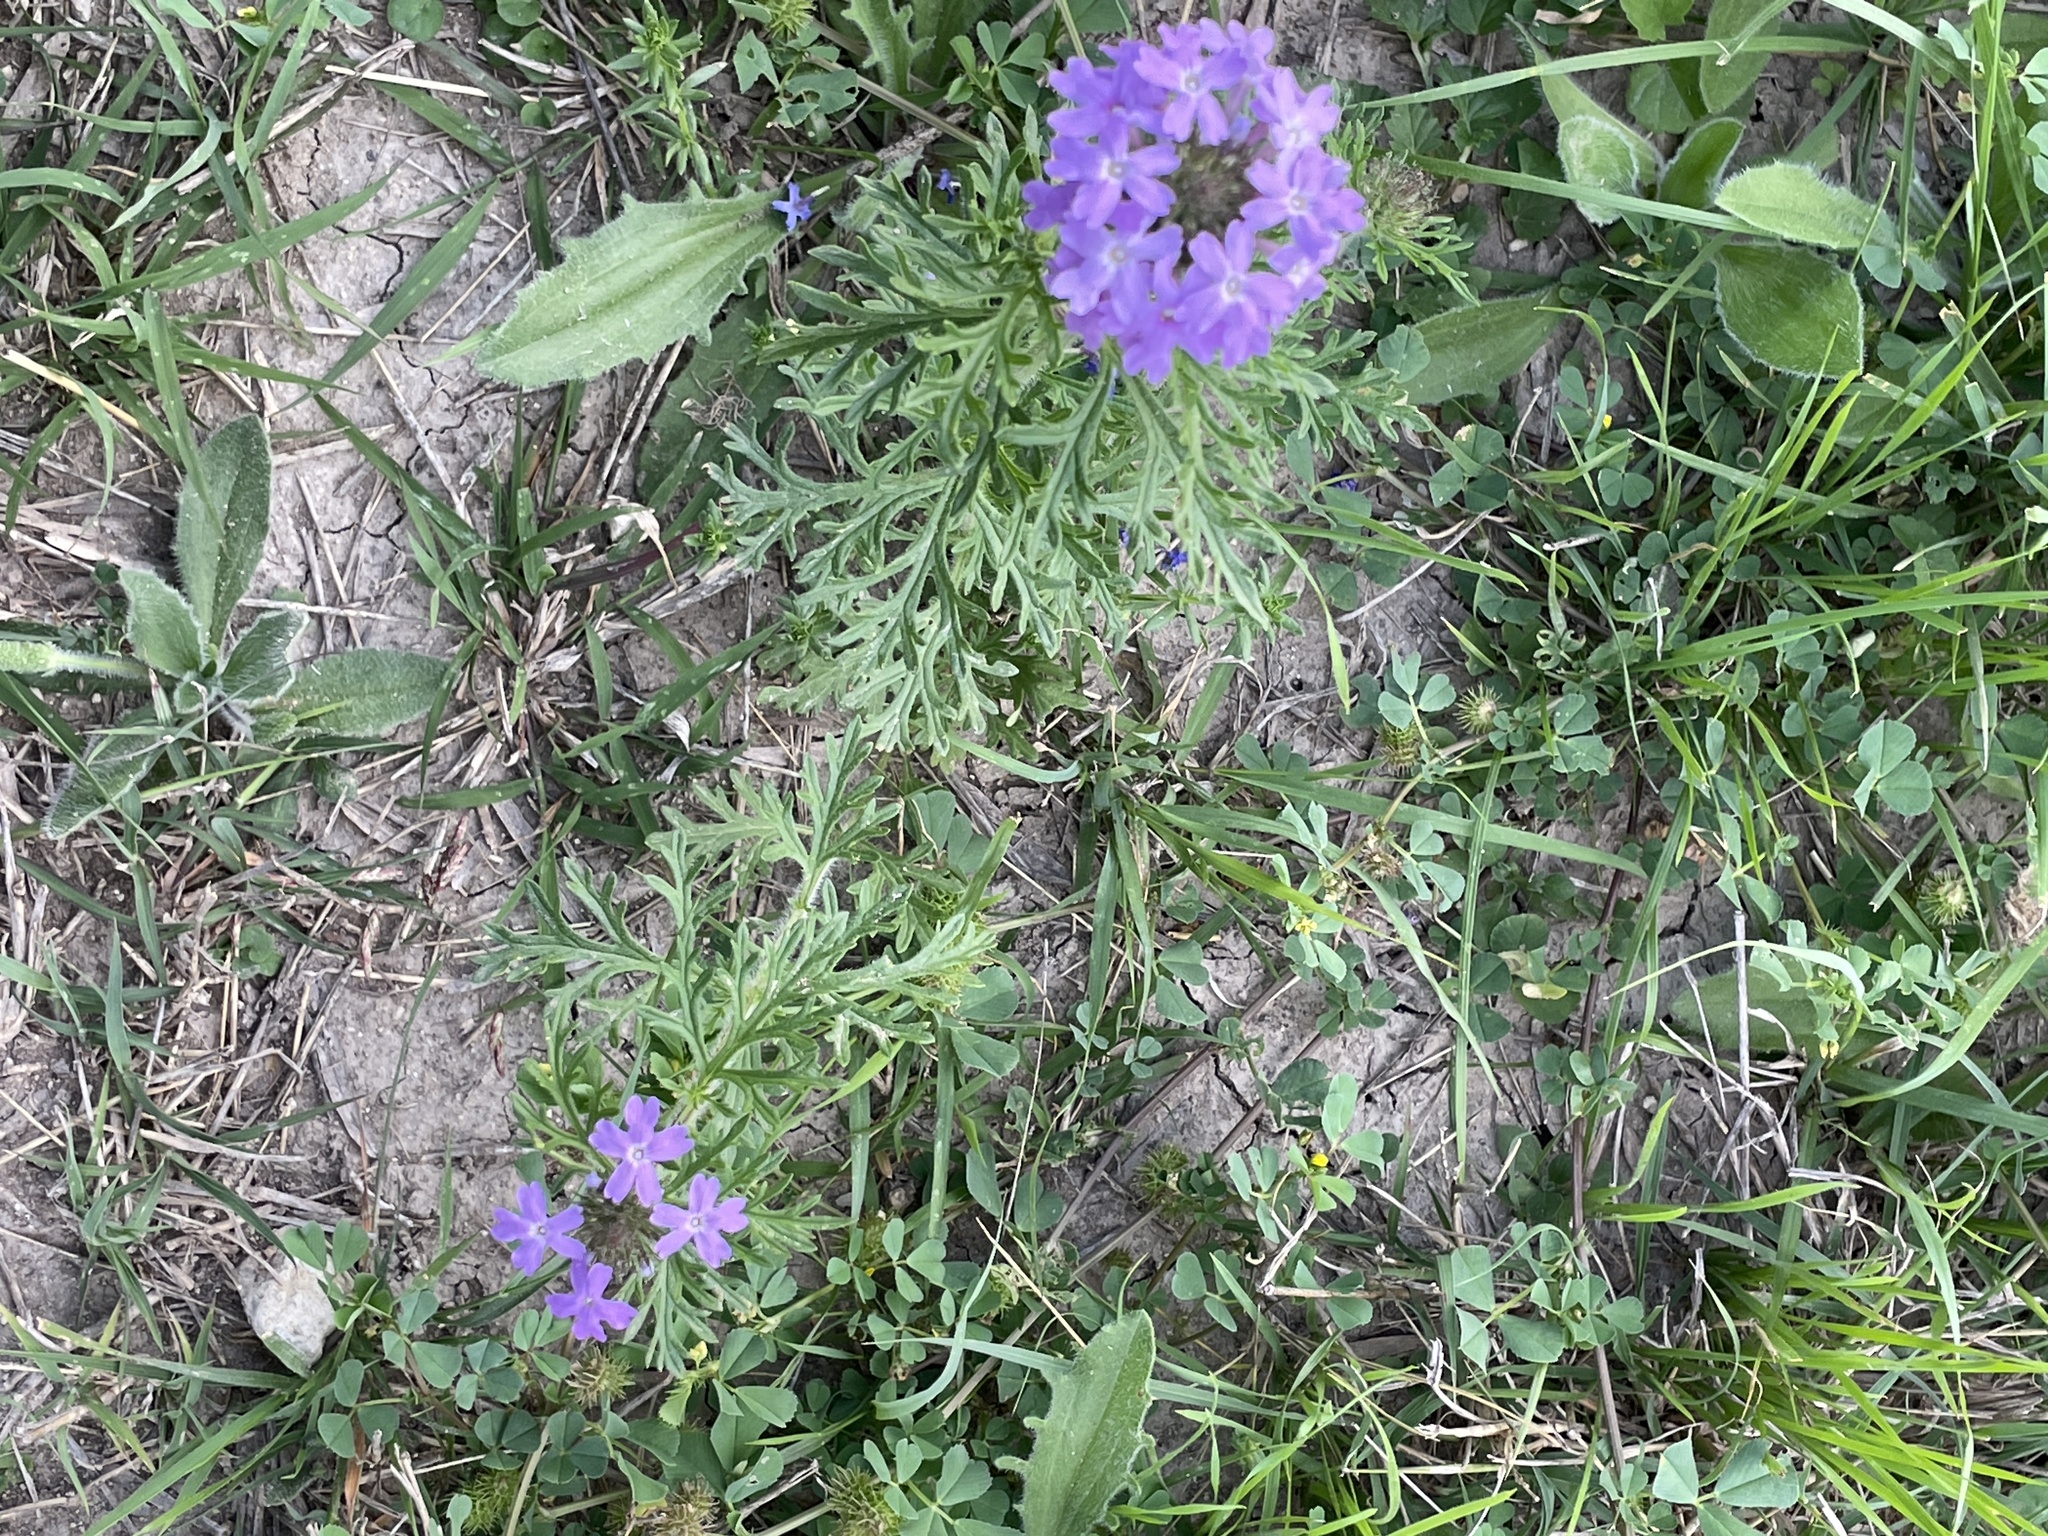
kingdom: Plantae
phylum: Tracheophyta
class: Magnoliopsida
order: Lamiales
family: Verbenaceae
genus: Verbena
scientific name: Verbena bipinnatifida
